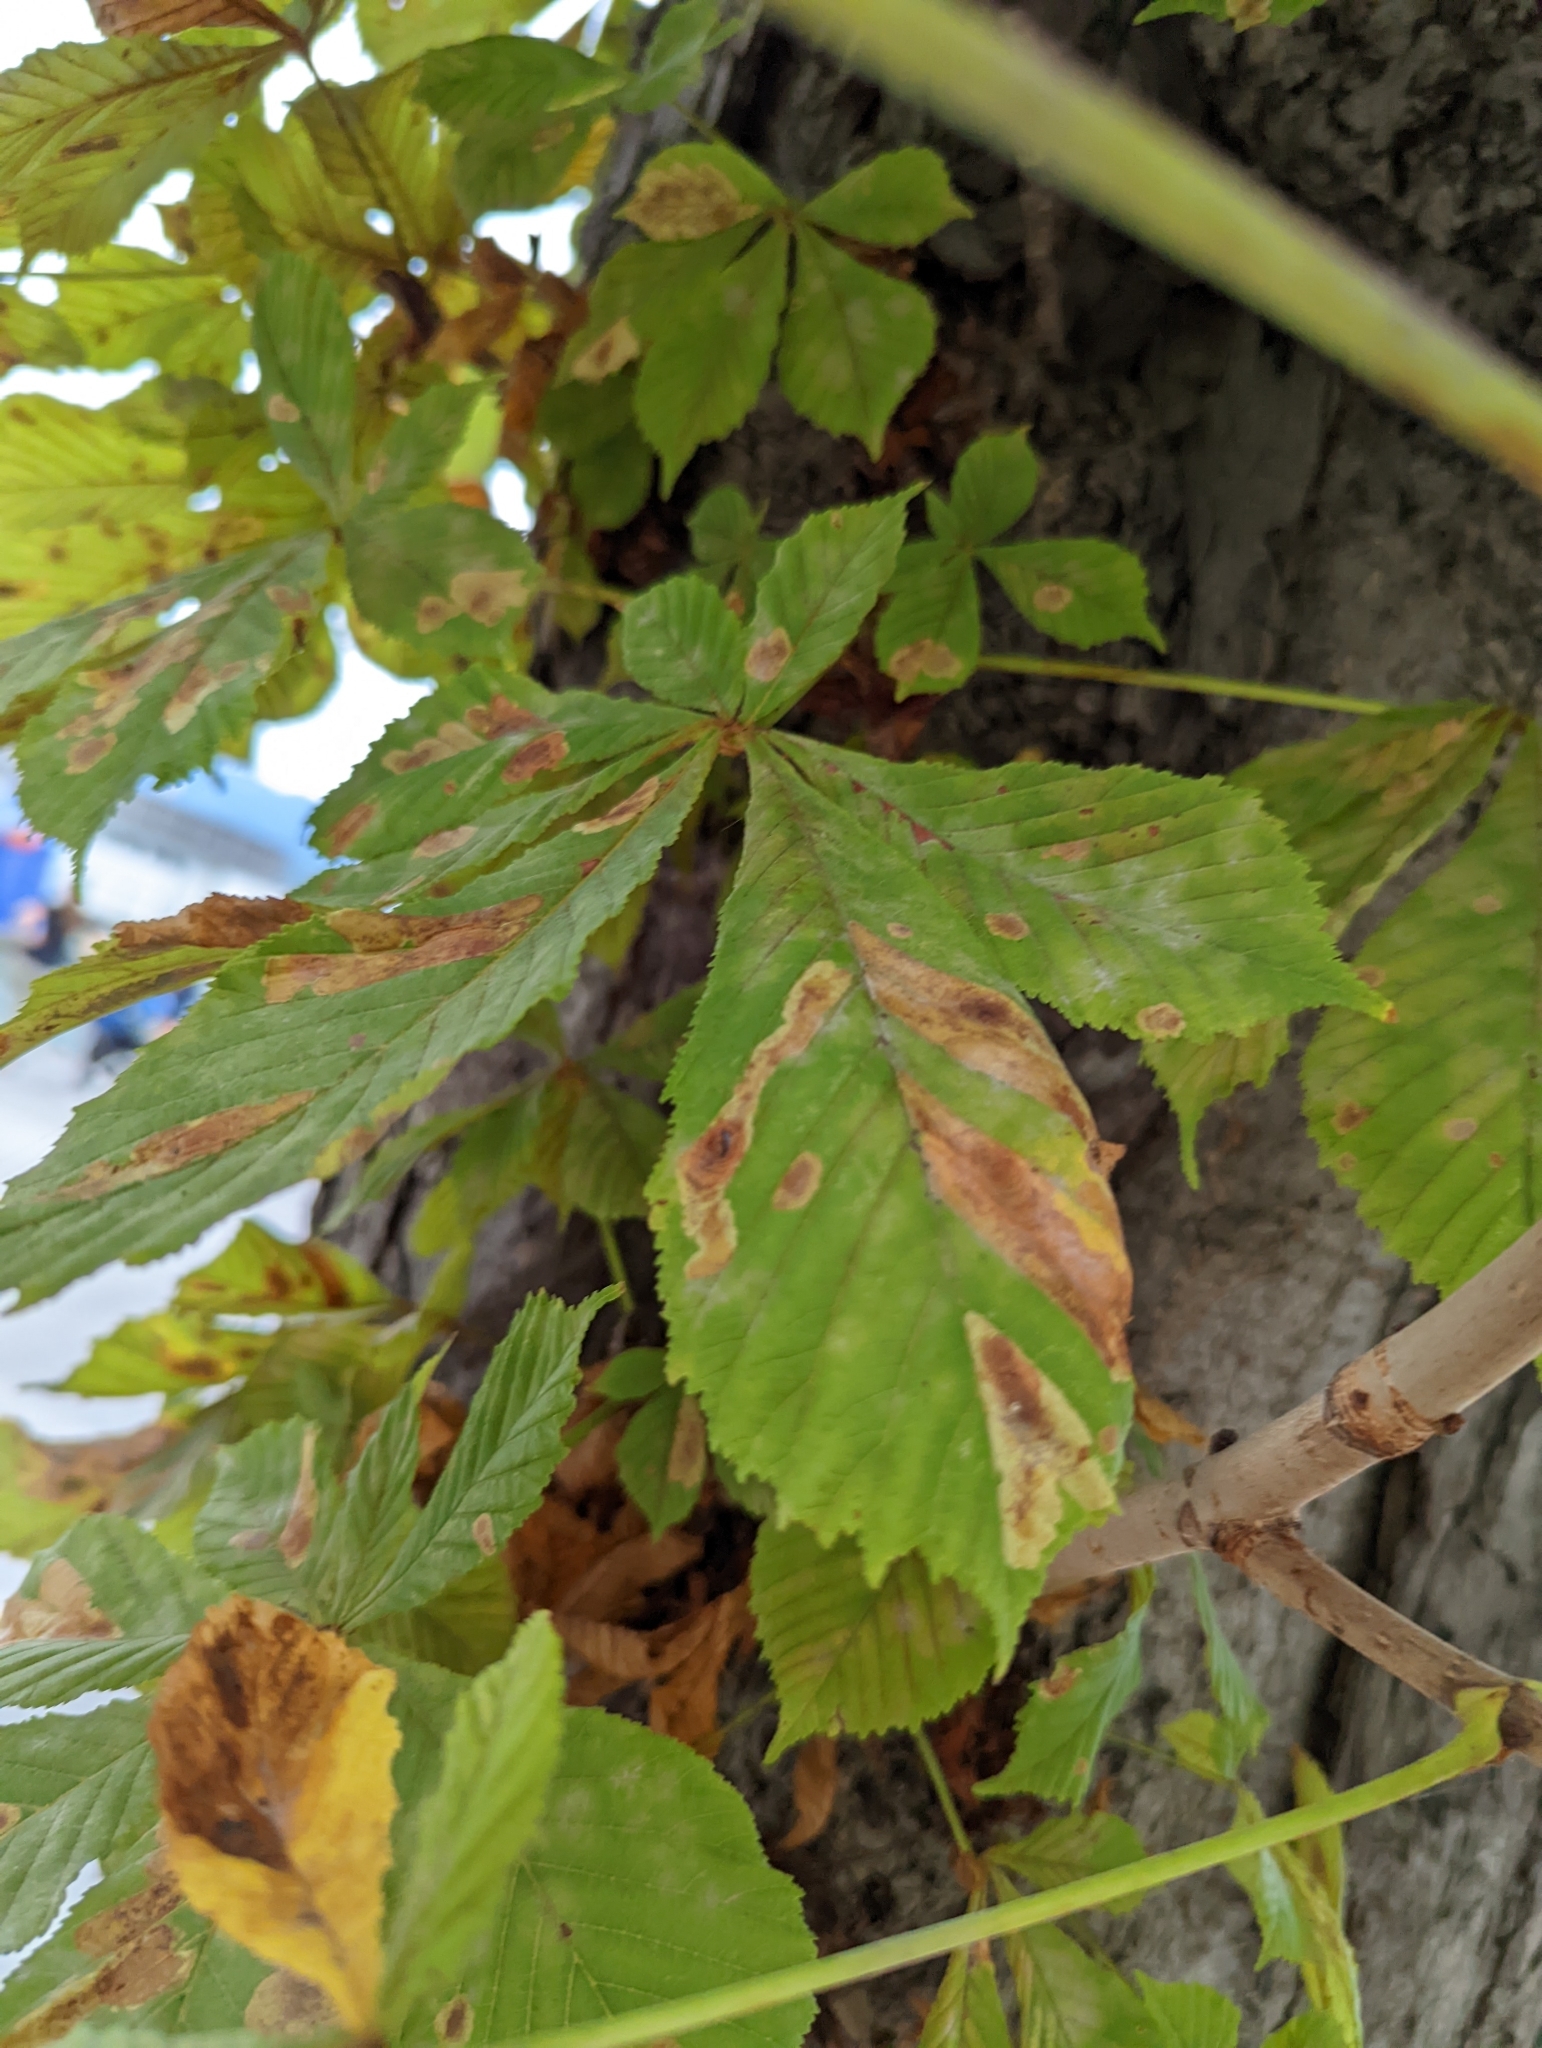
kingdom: Animalia
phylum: Arthropoda
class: Insecta
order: Lepidoptera
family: Gracillariidae
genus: Cameraria
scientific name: Cameraria ohridella
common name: Horse-chestnut leaf-miner
